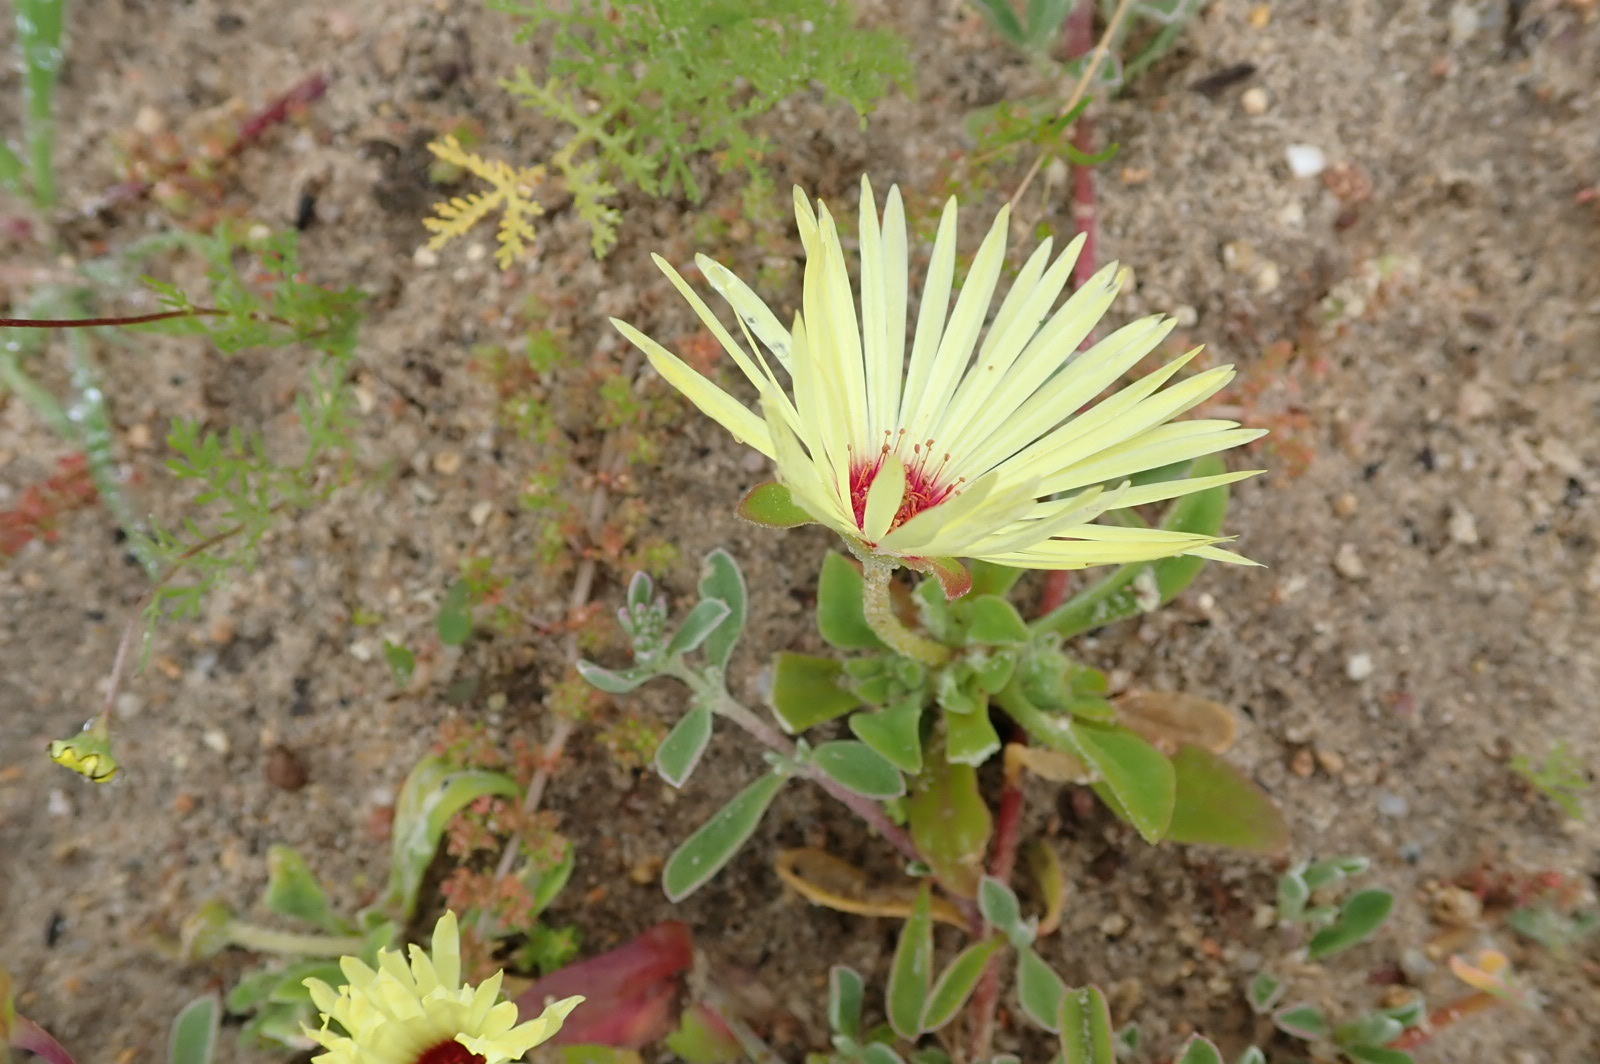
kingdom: Plantae
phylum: Tracheophyta
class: Magnoliopsida
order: Caryophyllales
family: Aizoaceae
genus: Cleretum
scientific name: Cleretum bellidiforme
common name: Livingstone daisy
